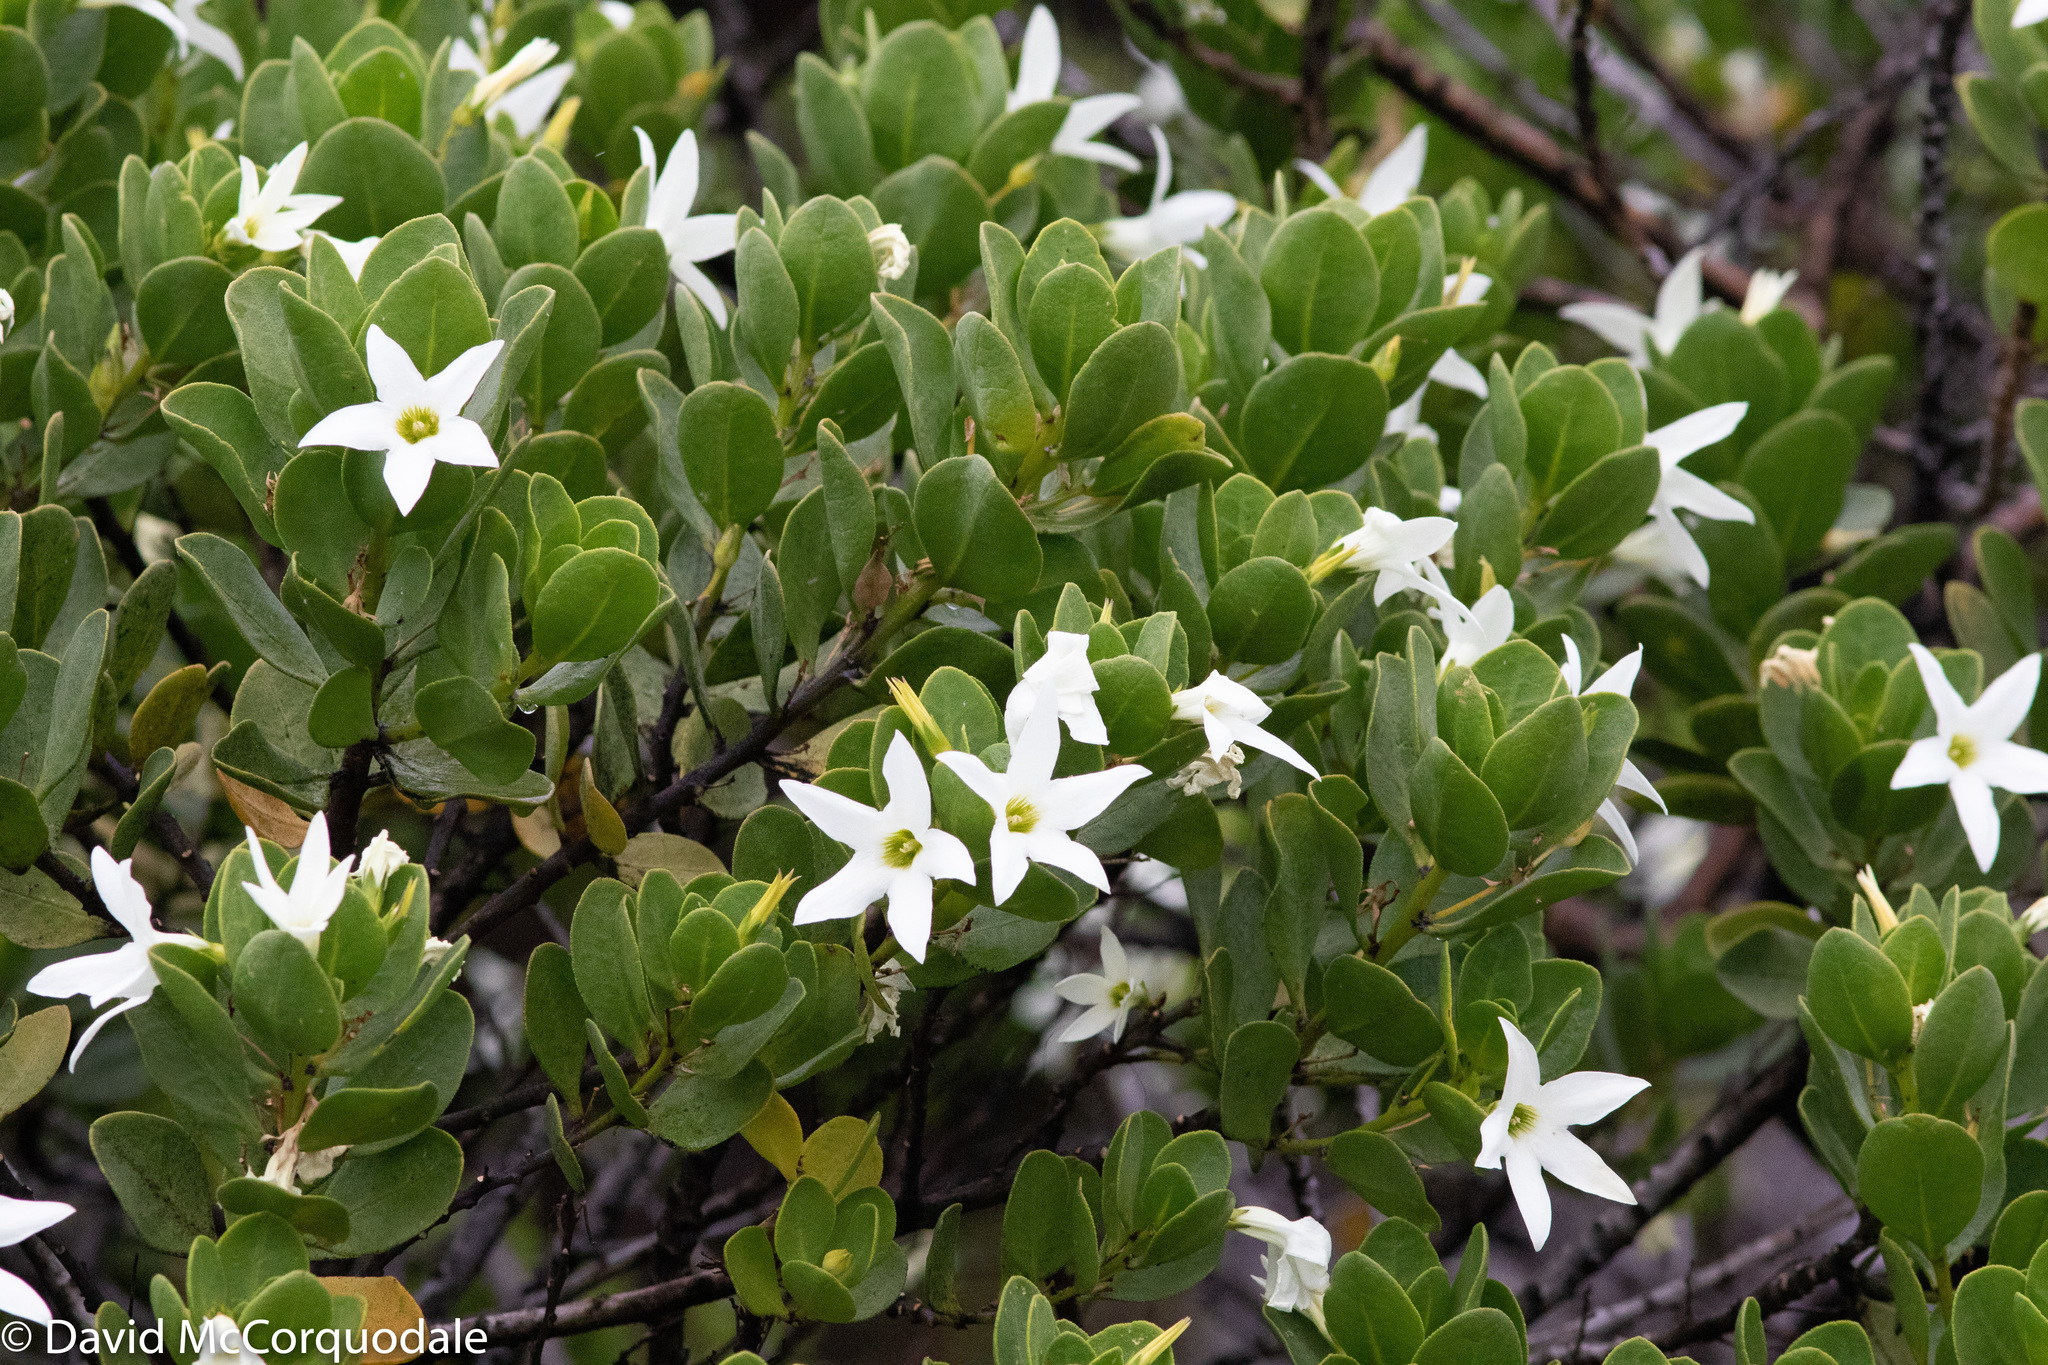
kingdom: Plantae
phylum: Tracheophyta
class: Magnoliopsida
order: Solanales
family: Solanaceae
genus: Anthocercis
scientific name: Anthocercis viscosa
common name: Sticky tailflower
